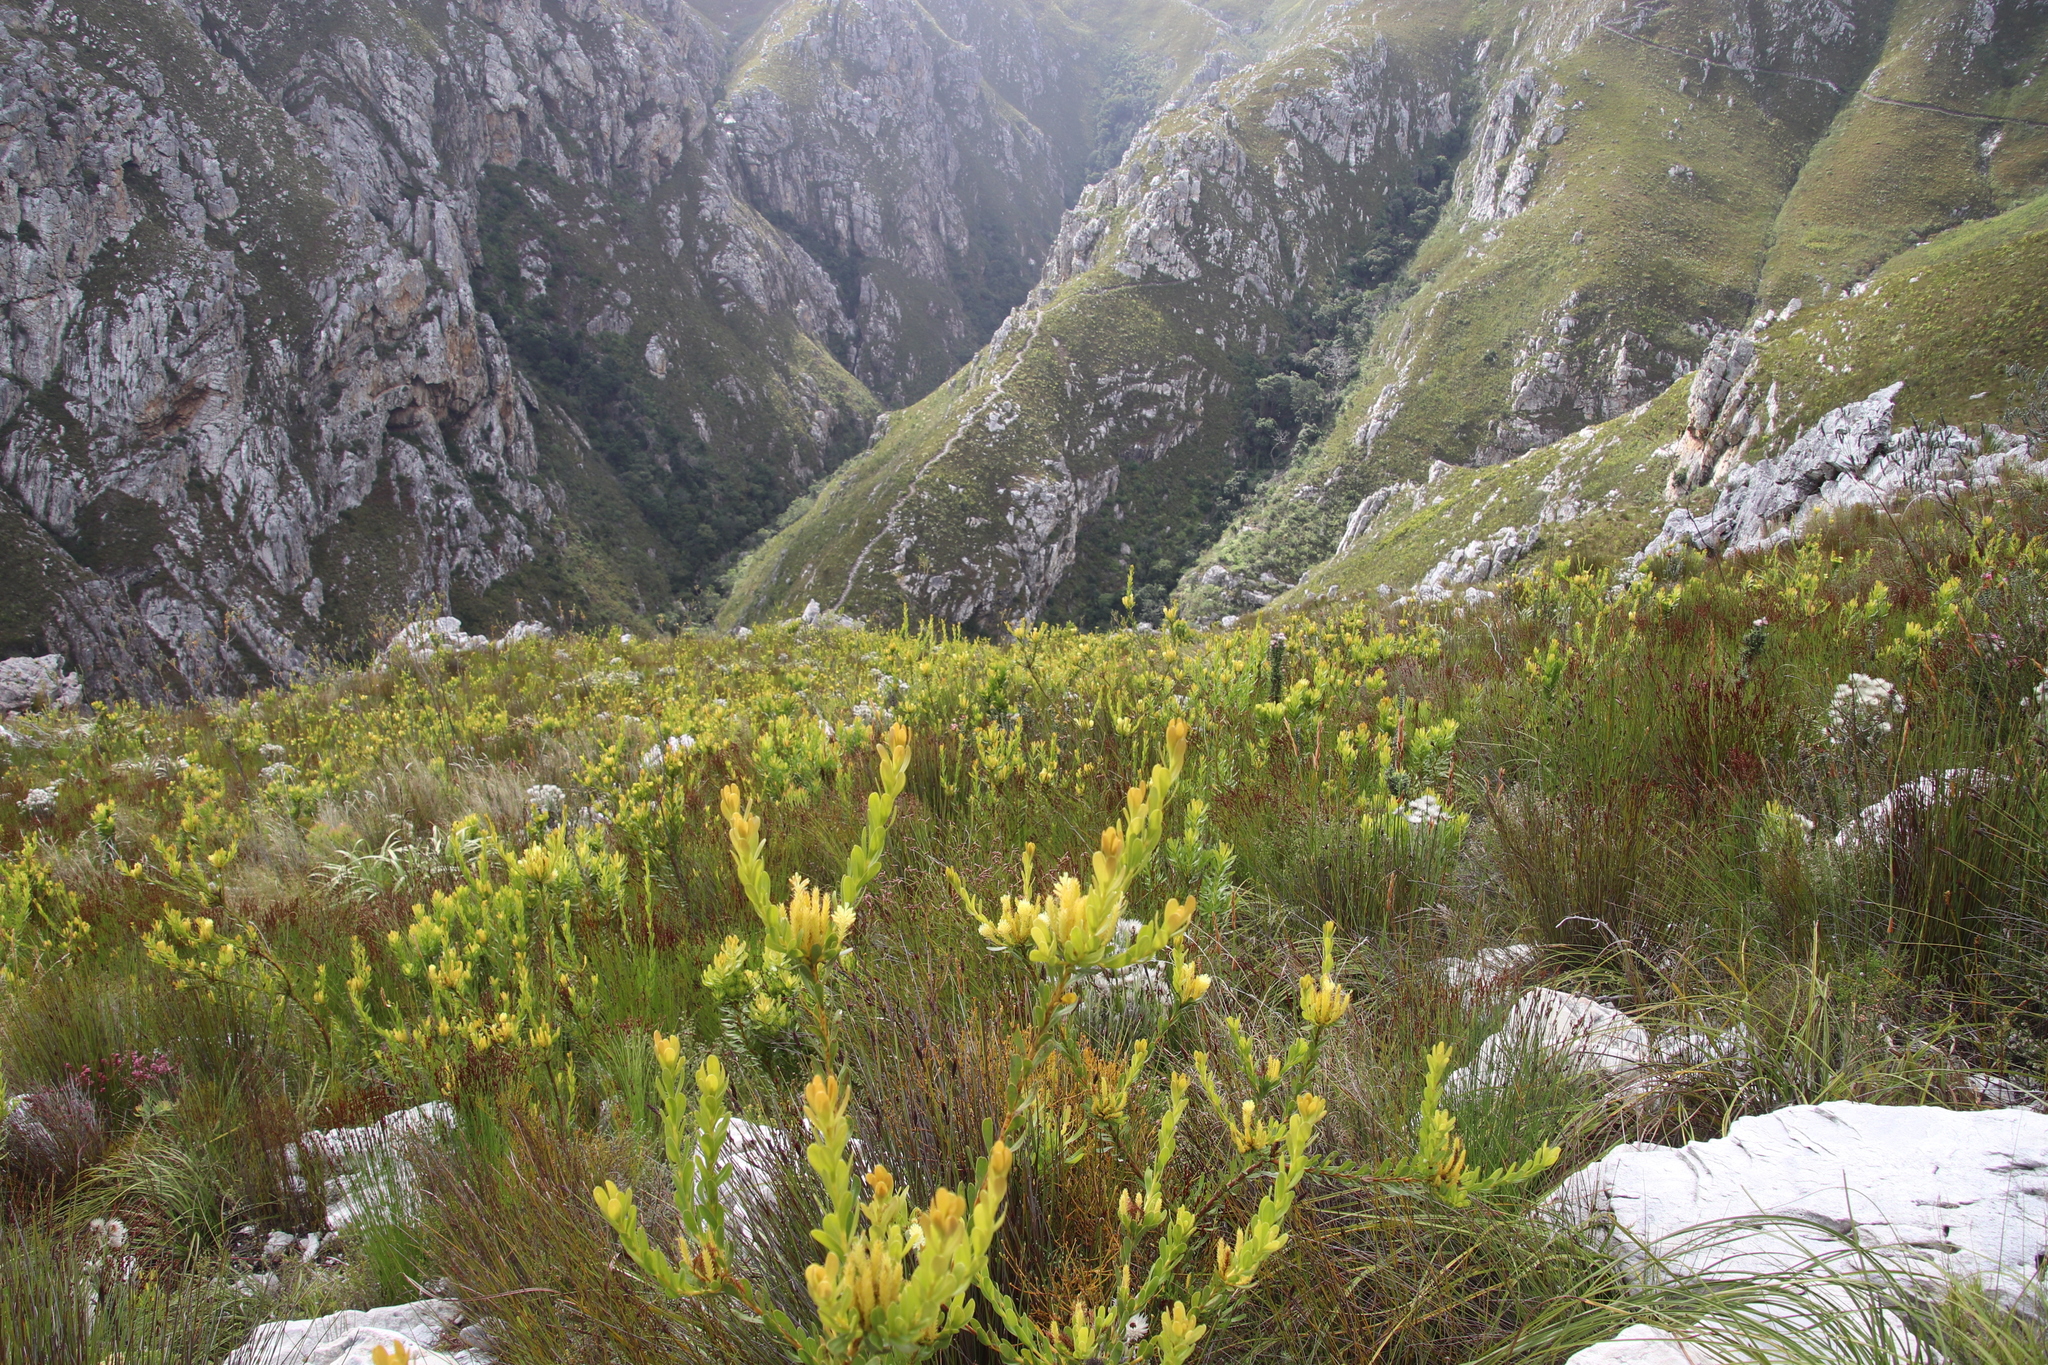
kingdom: Plantae
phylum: Tracheophyta
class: Magnoliopsida
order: Proteales
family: Proteaceae
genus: Aulax
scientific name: Aulax umbellata
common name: Broad-leaf featherbush
